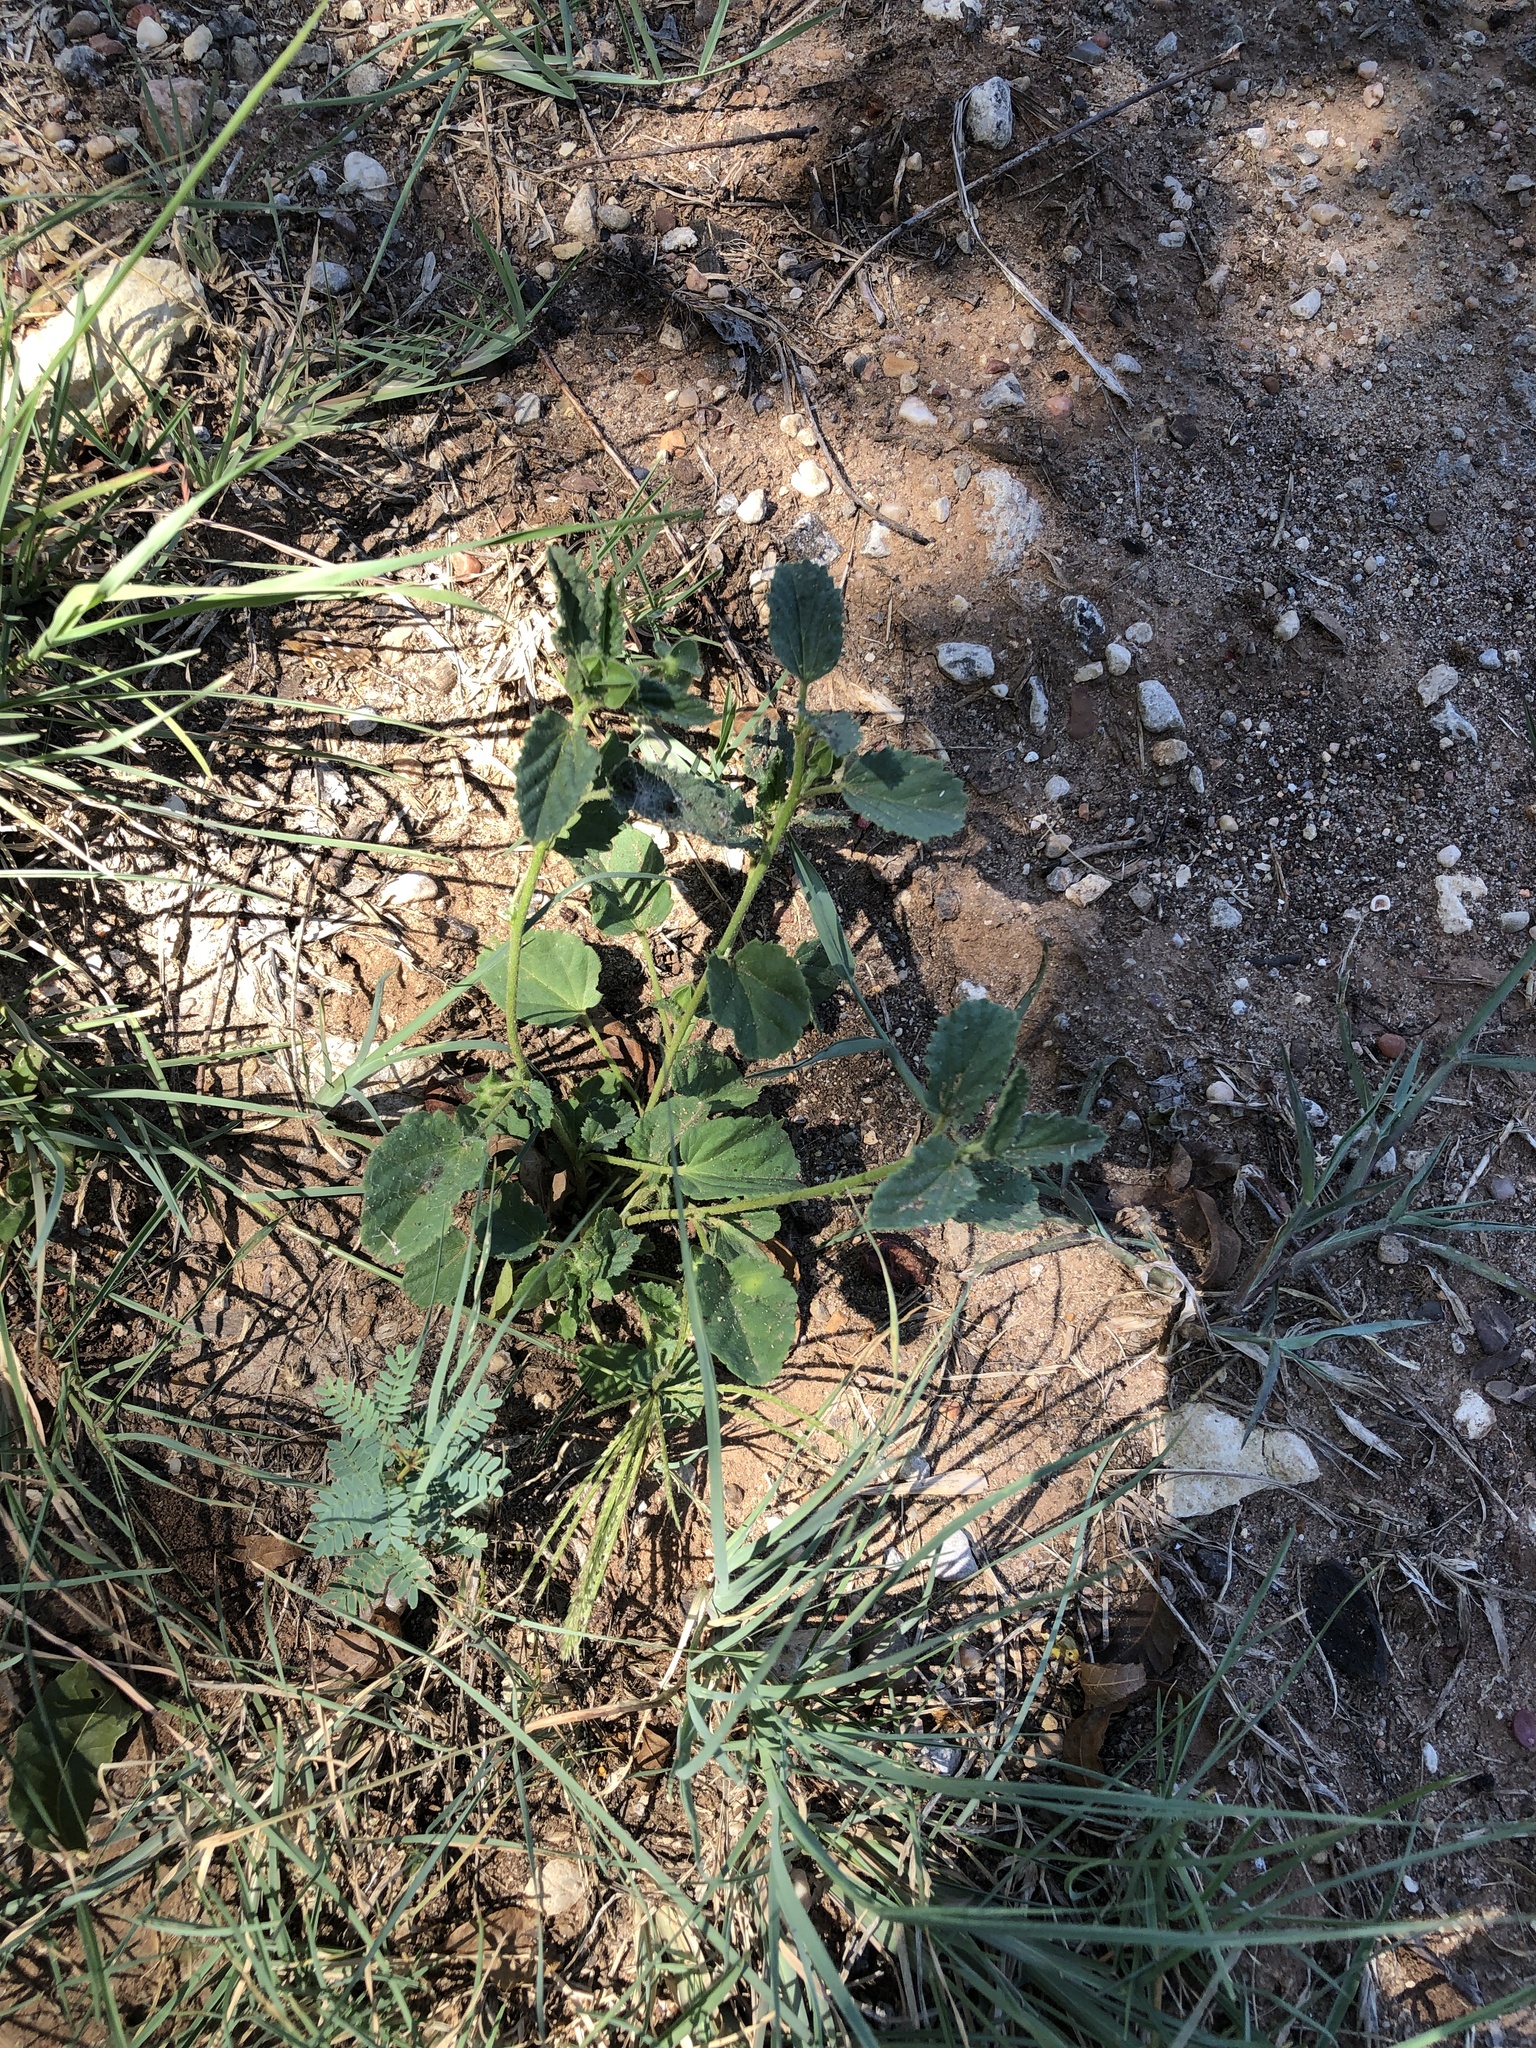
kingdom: Plantae
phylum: Tracheophyta
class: Magnoliopsida
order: Malvales
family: Malvaceae
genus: Rhynchosida
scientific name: Rhynchosida physocalyx
